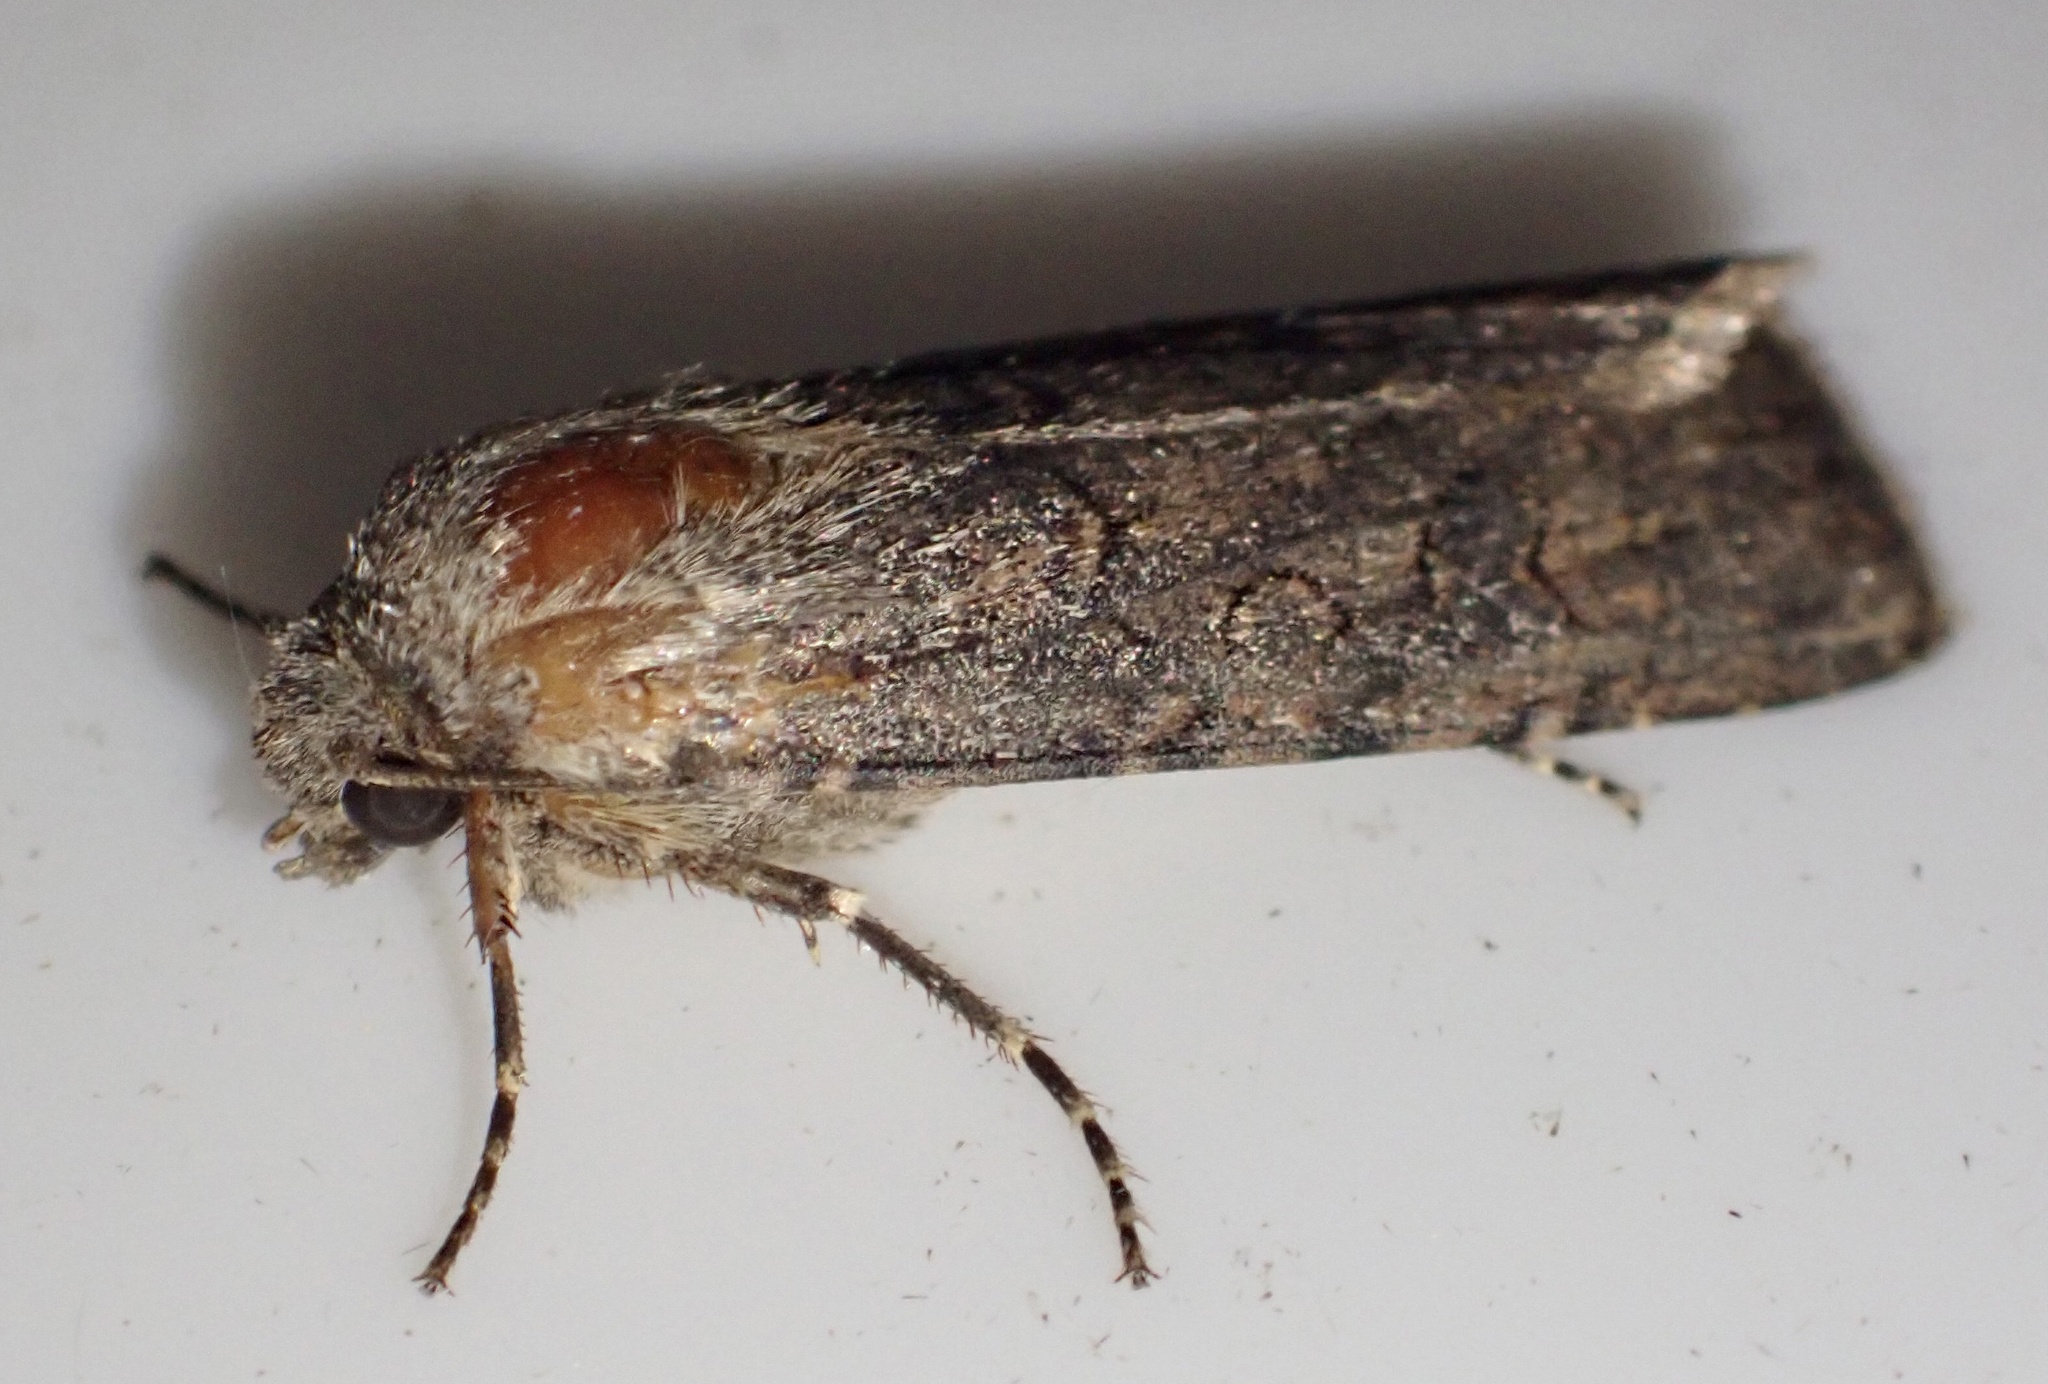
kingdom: Animalia
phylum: Arthropoda
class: Insecta
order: Lepidoptera
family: Noctuidae
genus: Agrotis
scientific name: Agrotis segetum
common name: Turnip moth
